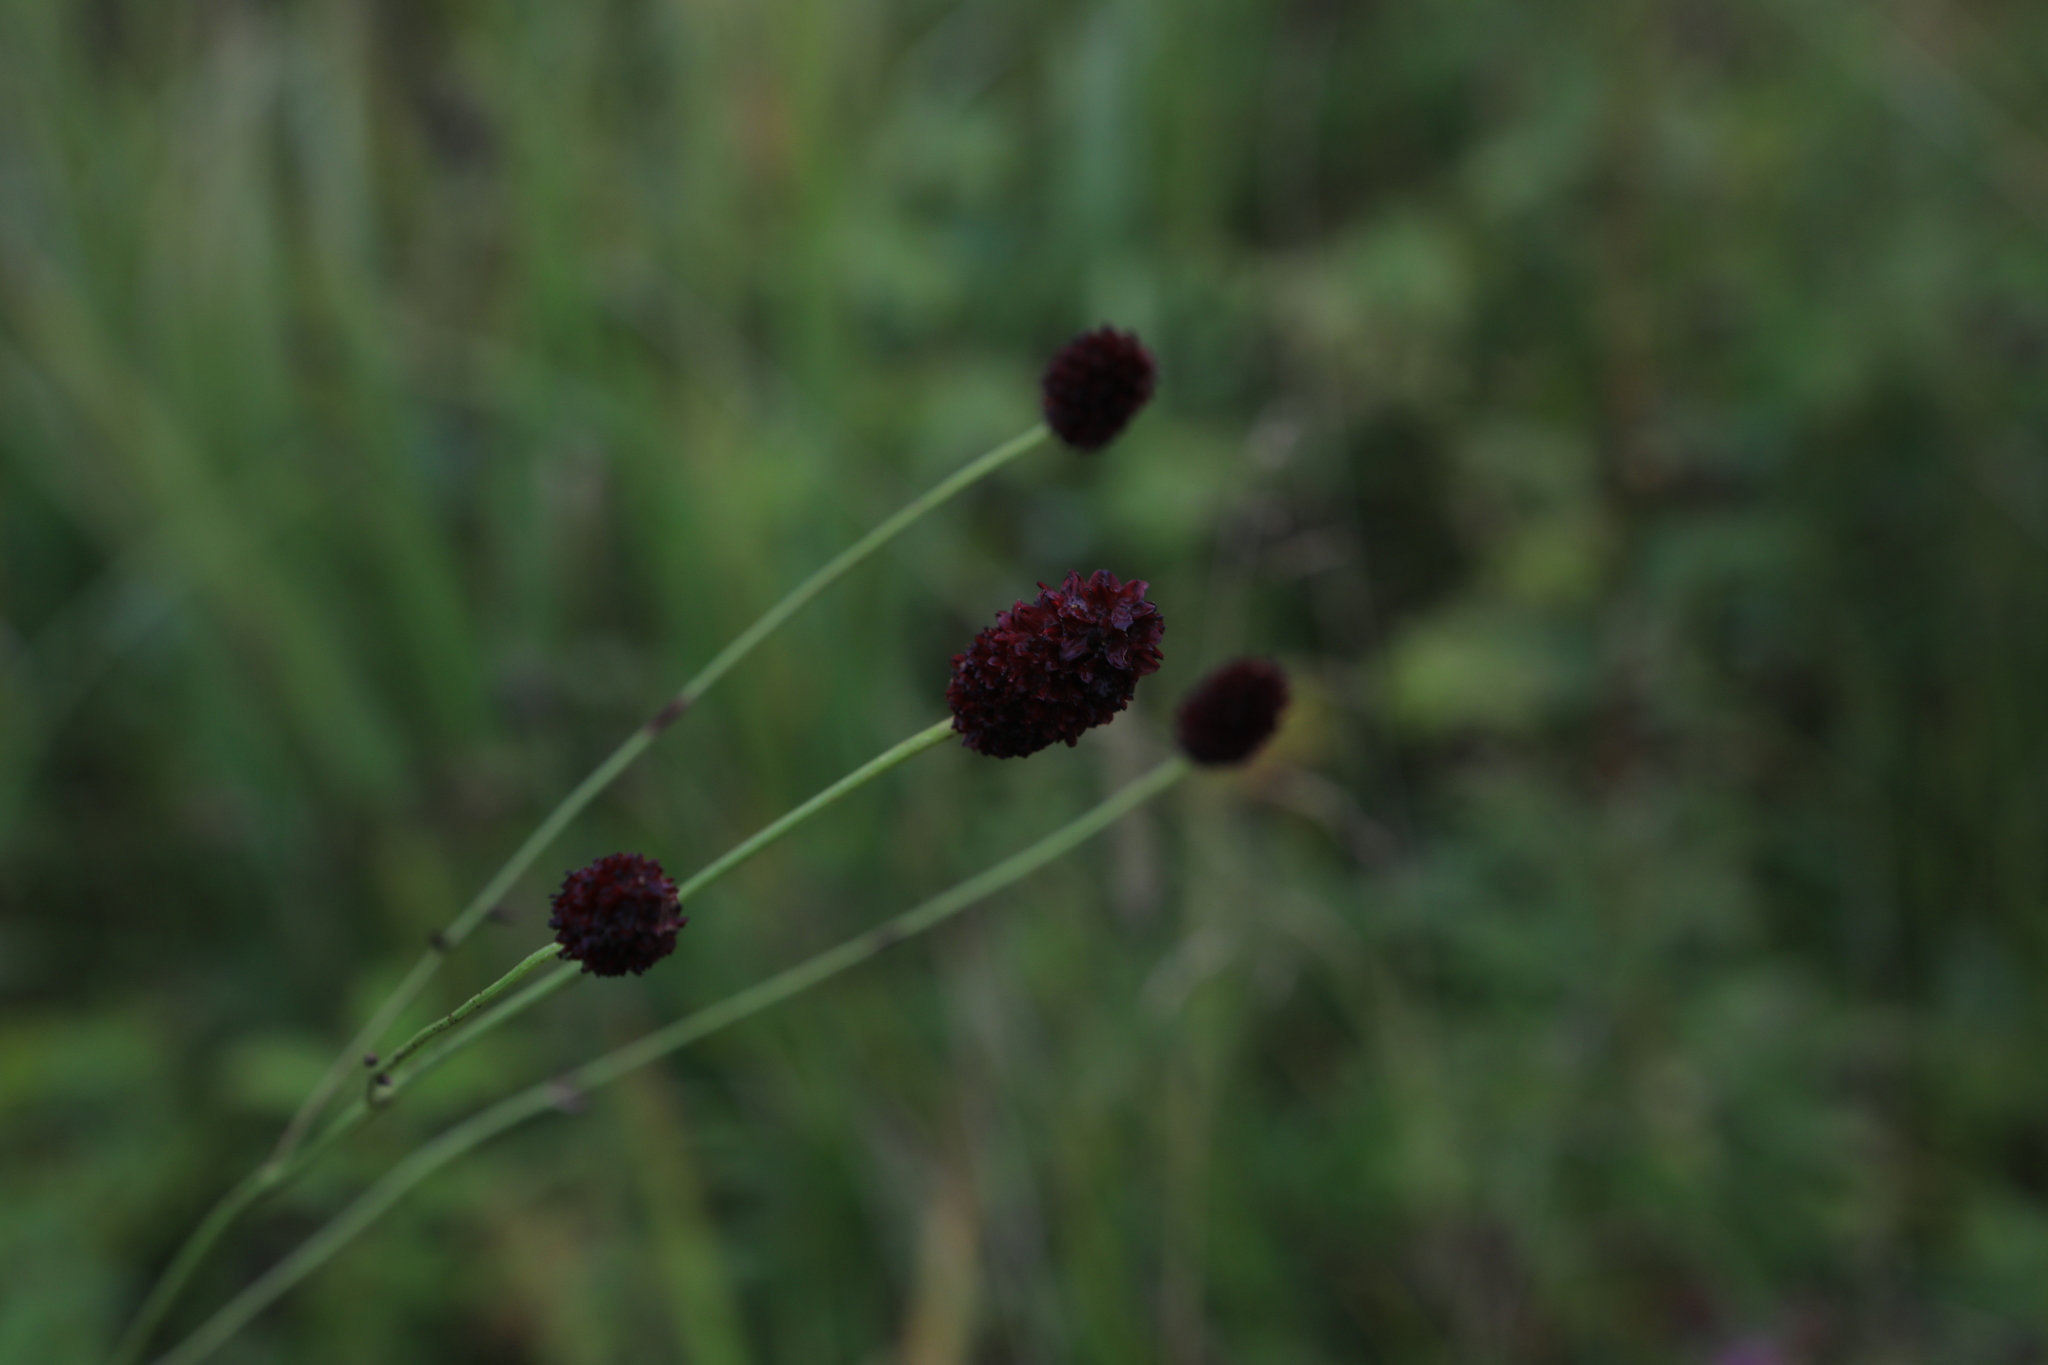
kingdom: Plantae
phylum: Tracheophyta
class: Magnoliopsida
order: Rosales
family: Rosaceae
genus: Sanguisorba
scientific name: Sanguisorba officinalis
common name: Great burnet
